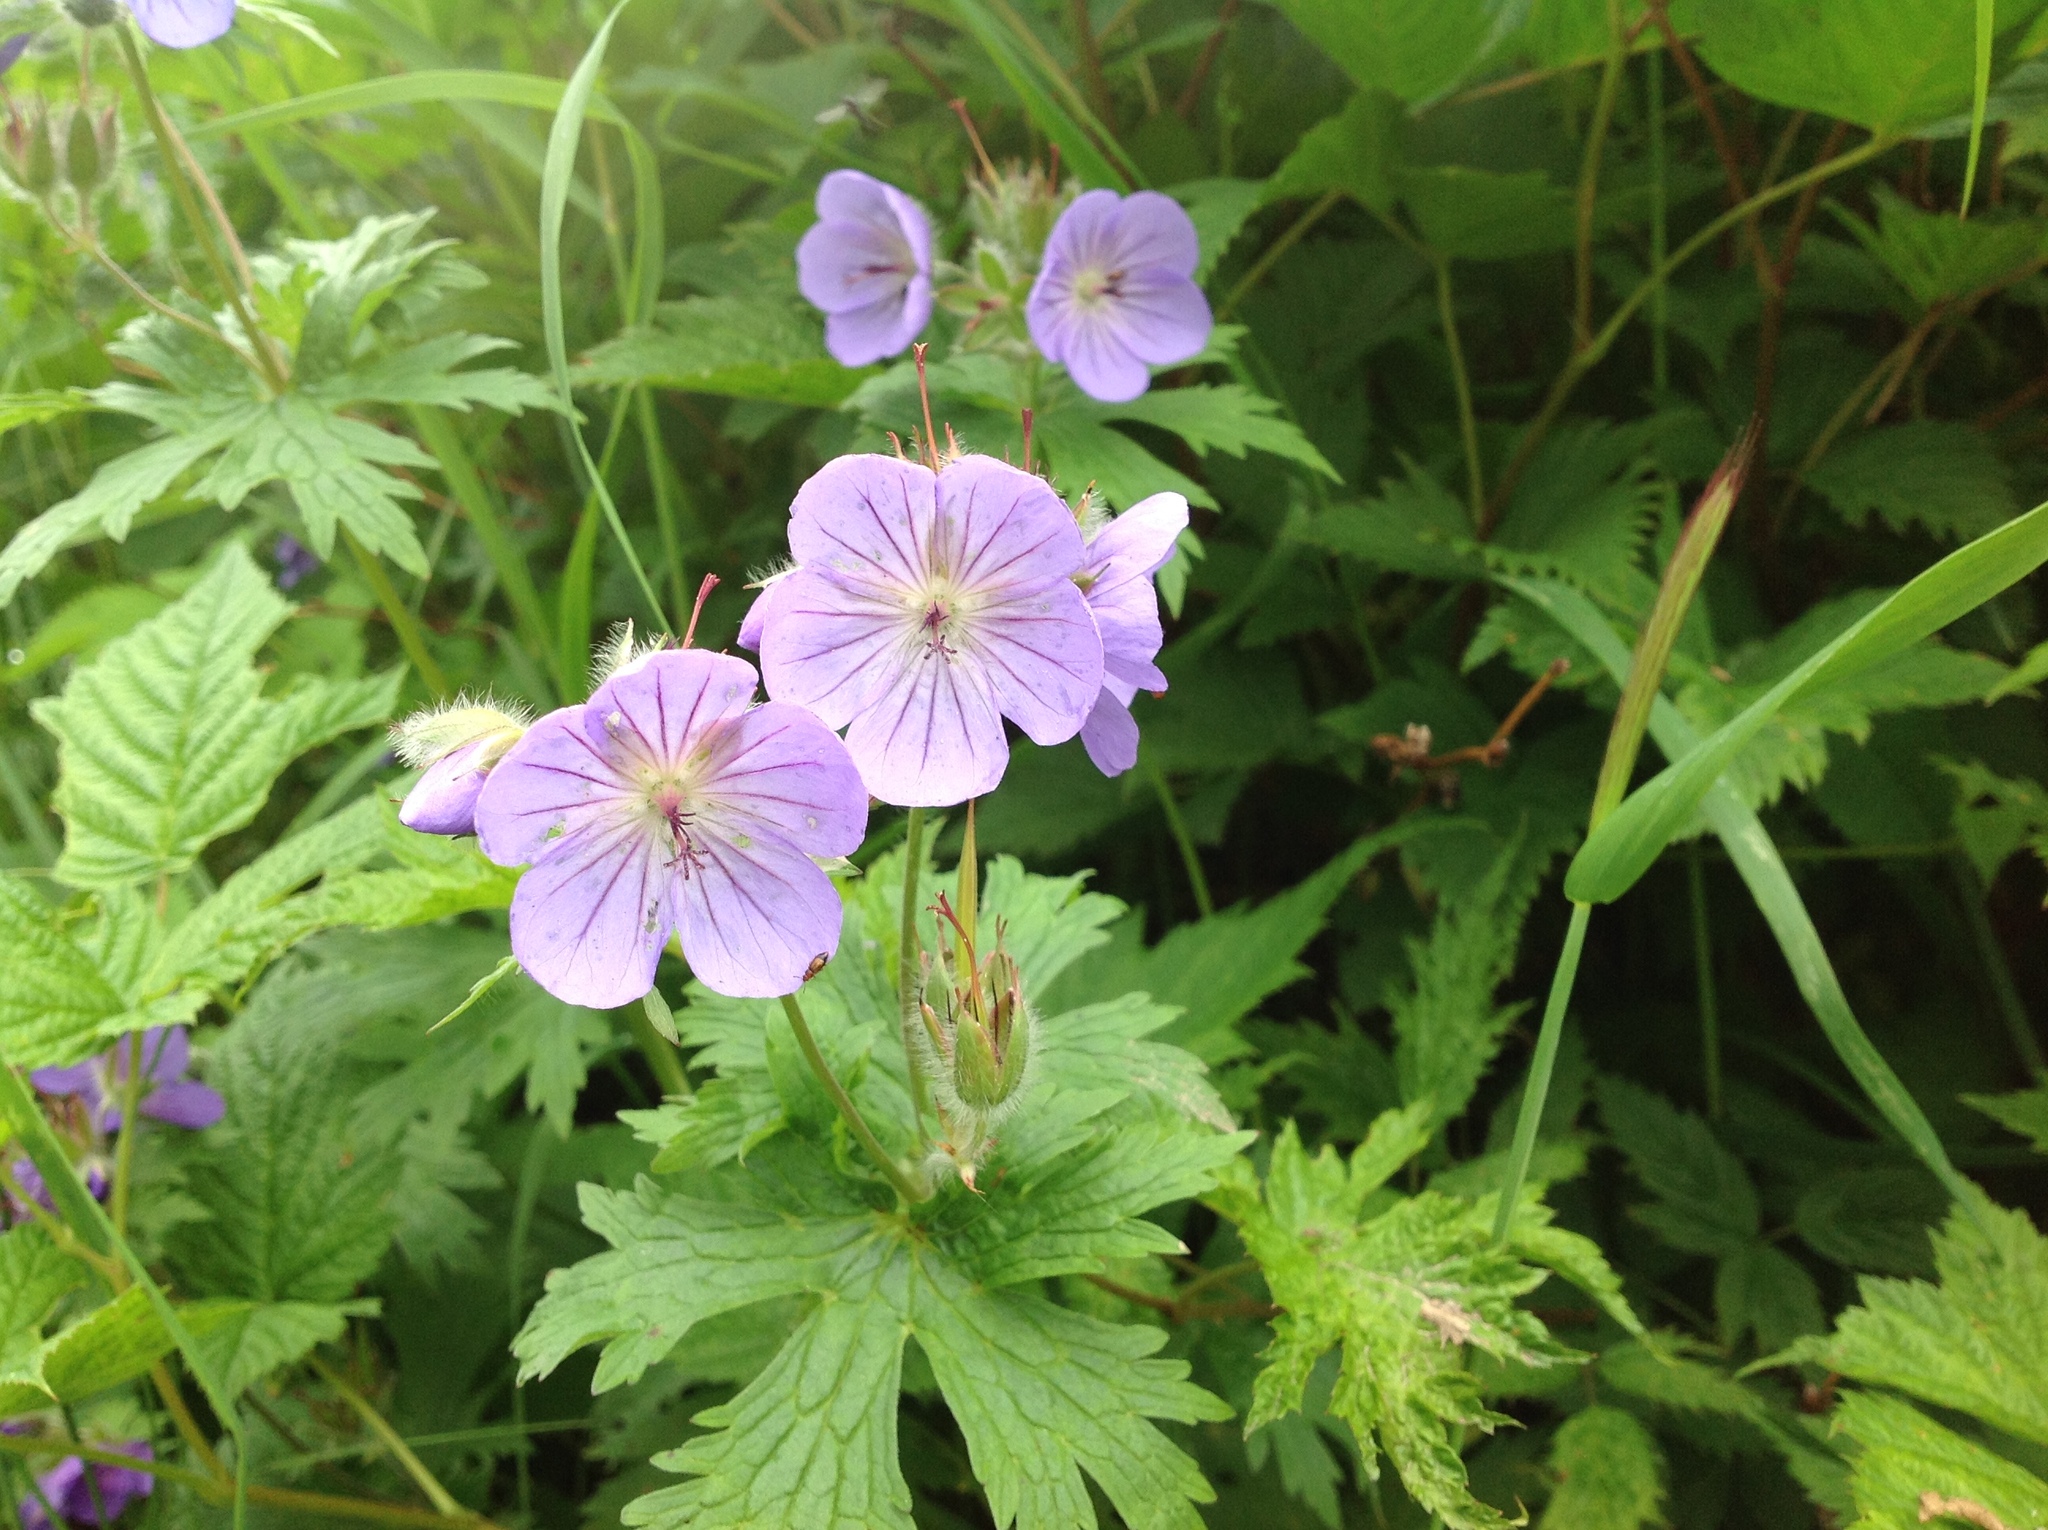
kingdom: Plantae
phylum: Tracheophyta
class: Magnoliopsida
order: Geraniales
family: Geraniaceae
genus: Geranium
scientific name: Geranium erianthum
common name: Northern crane's-bill
